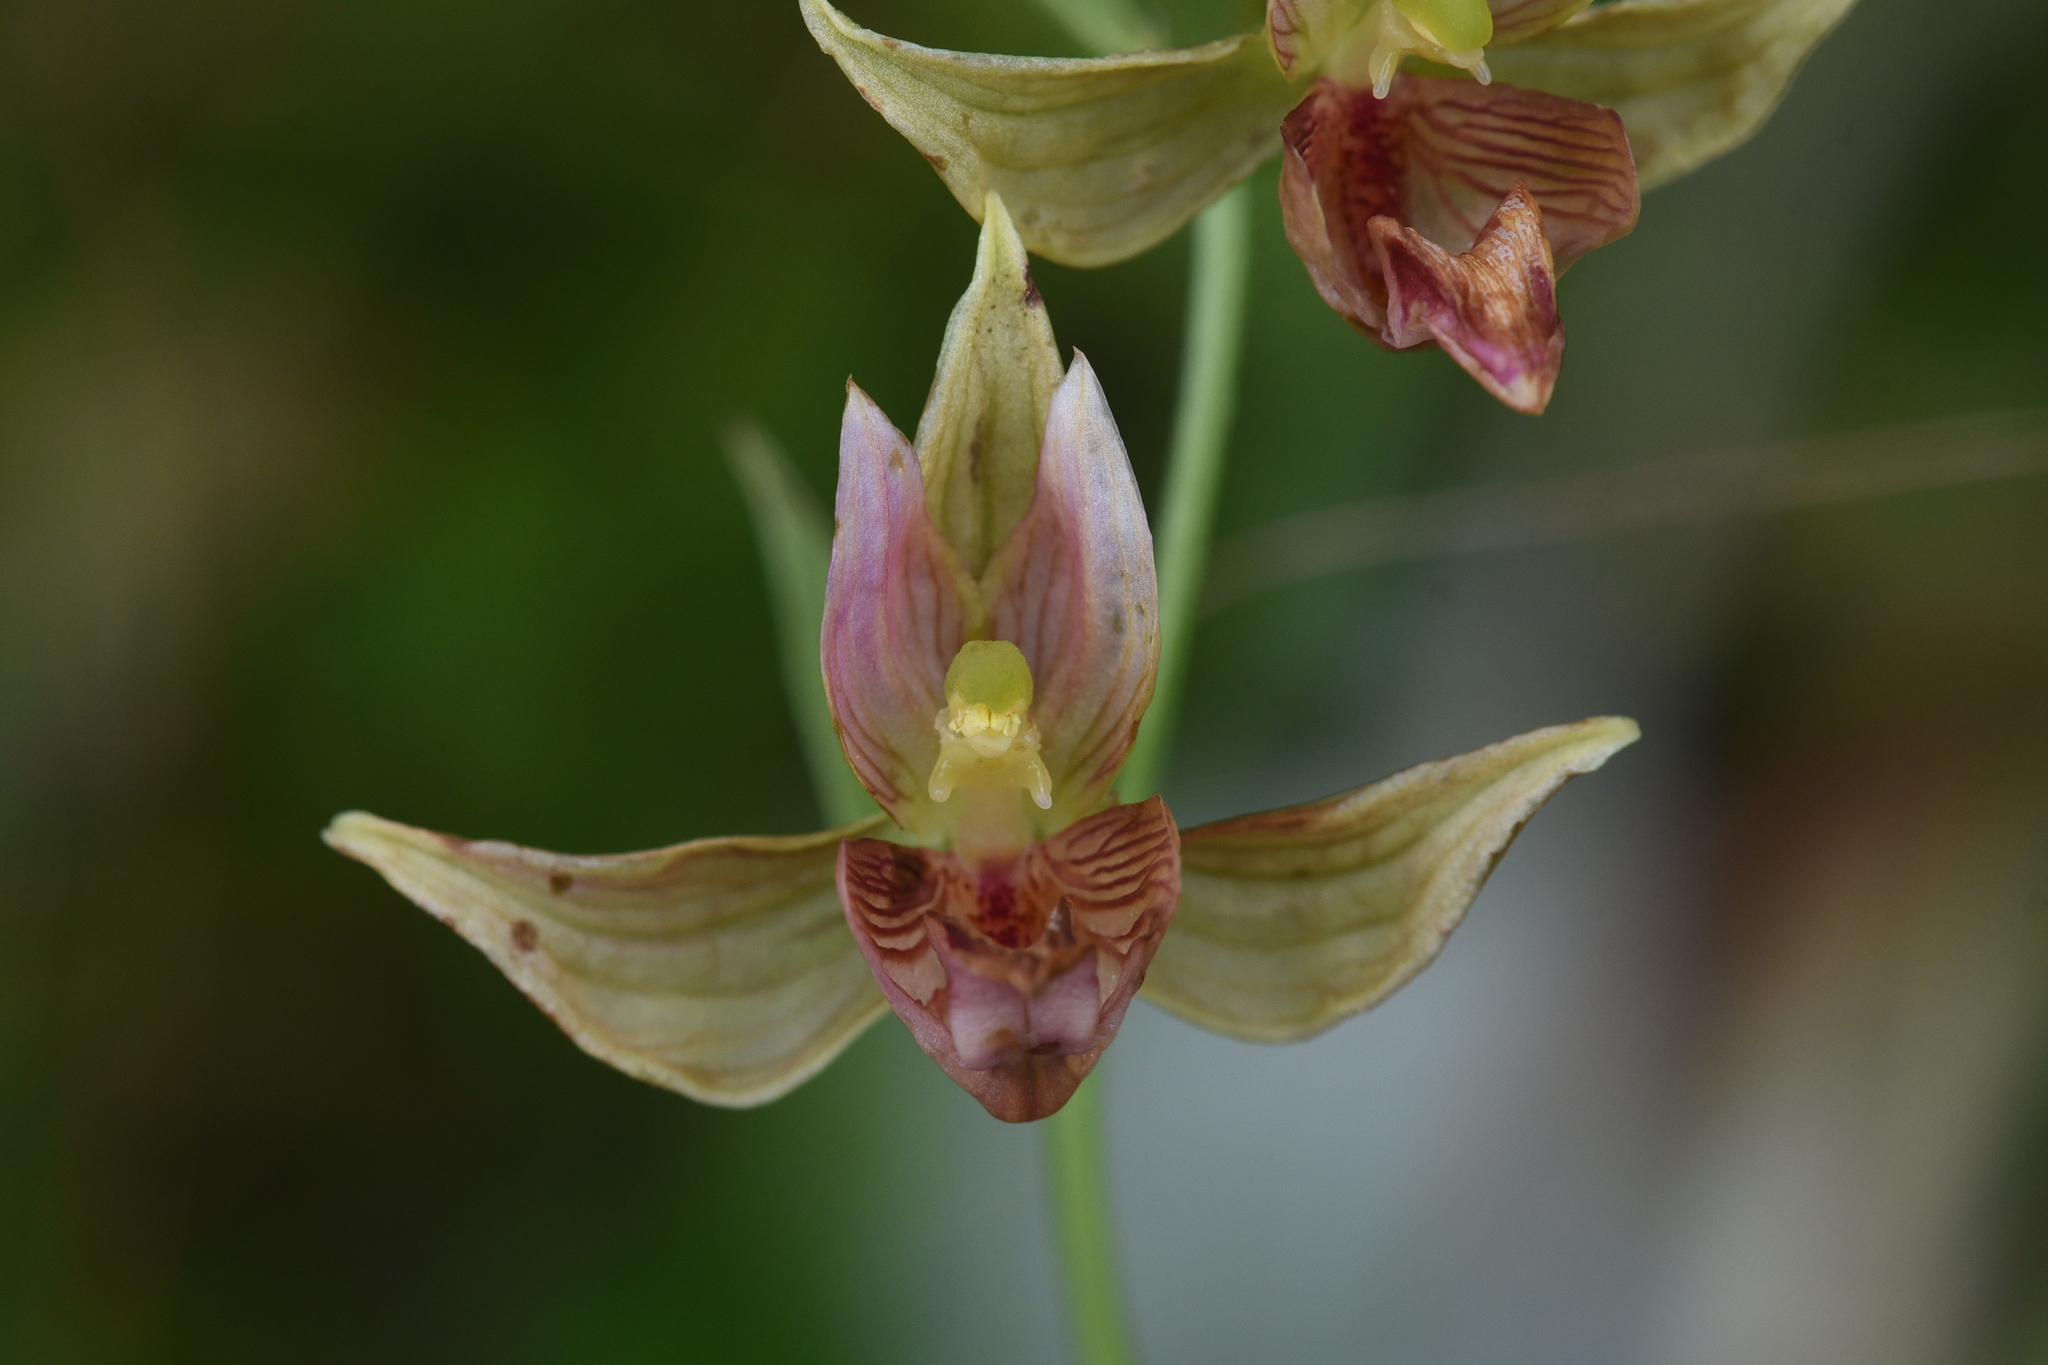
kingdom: Plantae
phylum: Tracheophyta
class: Liliopsida
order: Asparagales
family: Orchidaceae
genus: Epipactis
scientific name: Epipactis gigantea
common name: Chatterbox
